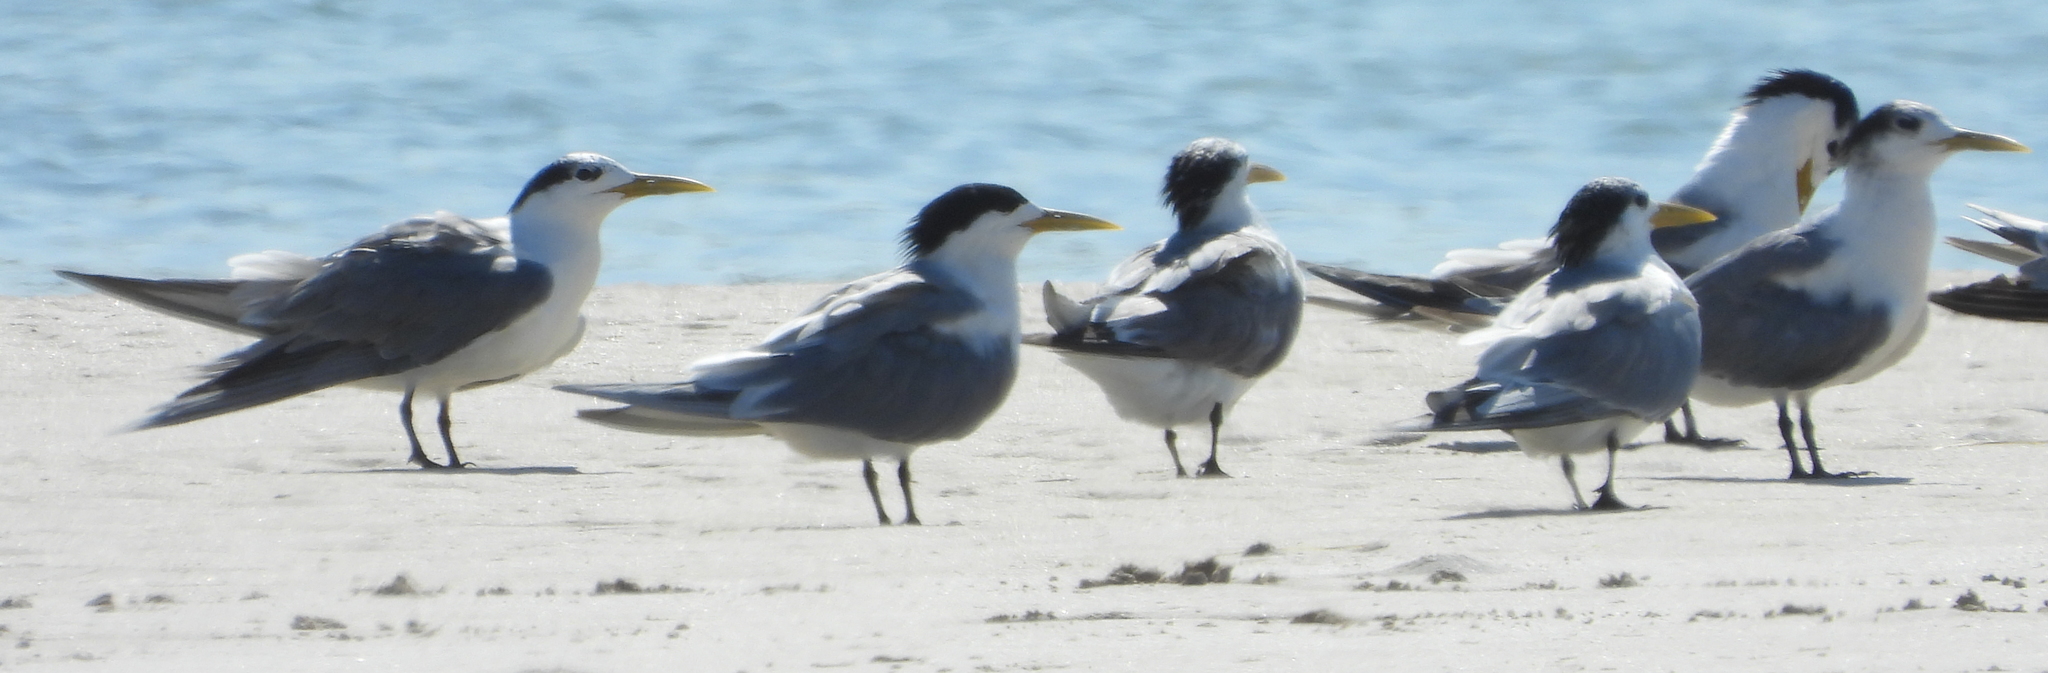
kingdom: Animalia
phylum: Chordata
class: Aves
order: Charadriiformes
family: Laridae
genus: Thalasseus
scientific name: Thalasseus bergii
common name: Greater crested tern
